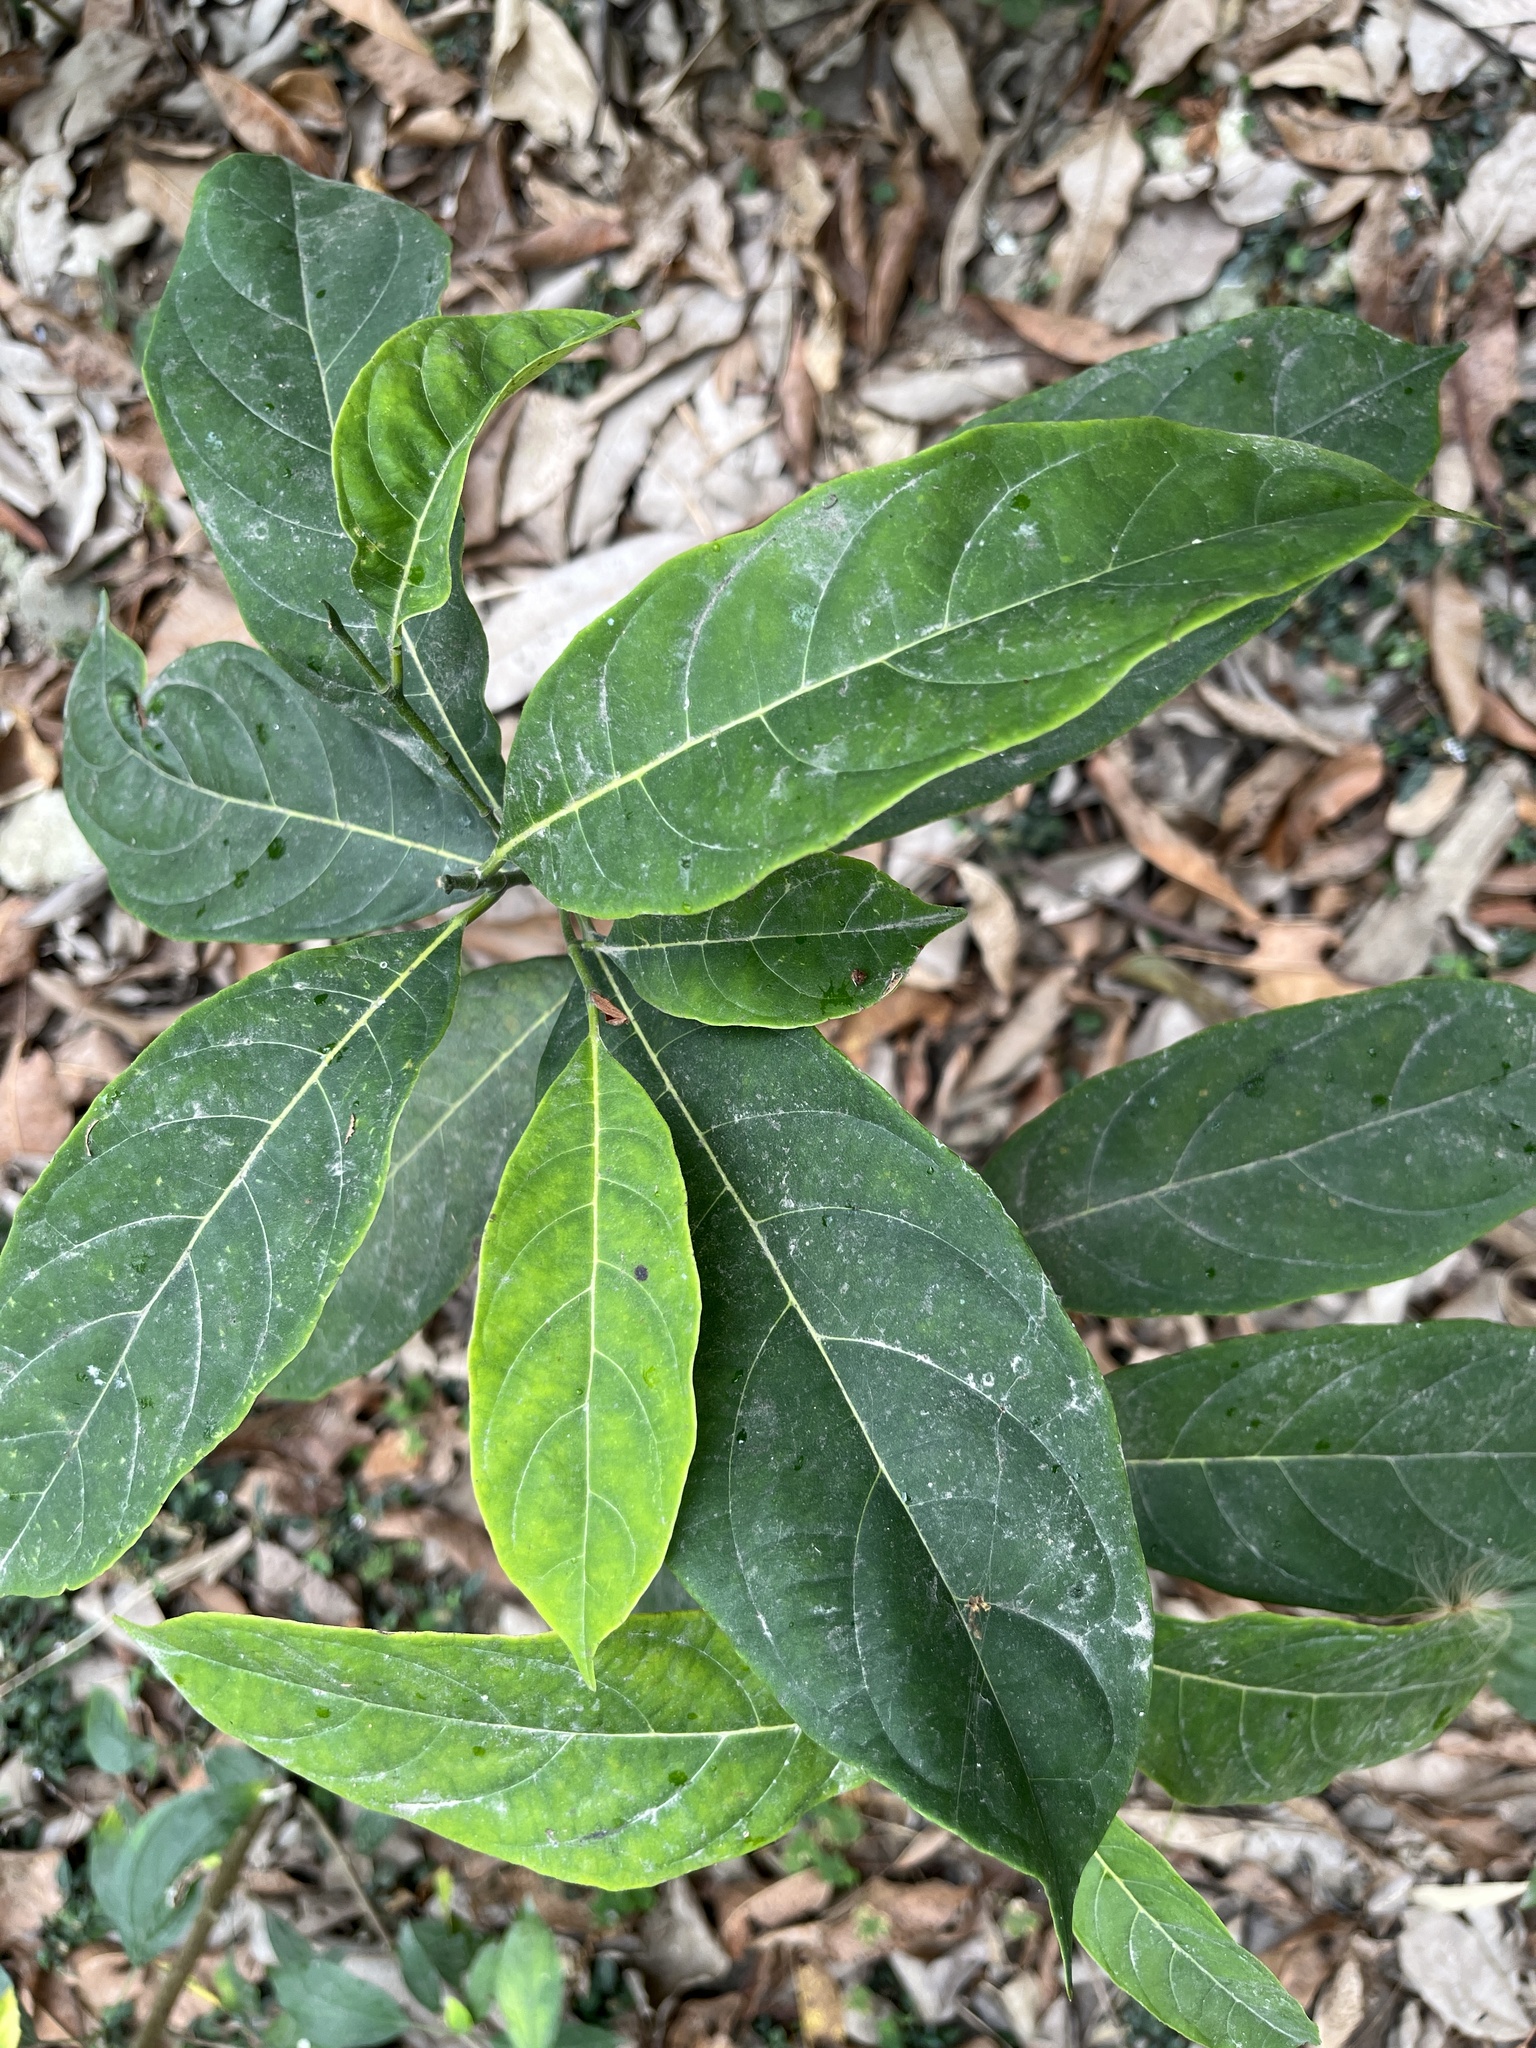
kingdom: Plantae
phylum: Tracheophyta
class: Magnoliopsida
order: Boraginales
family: Ehretiaceae
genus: Ehretia
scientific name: Ehretia acuminata
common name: Kodo wood
